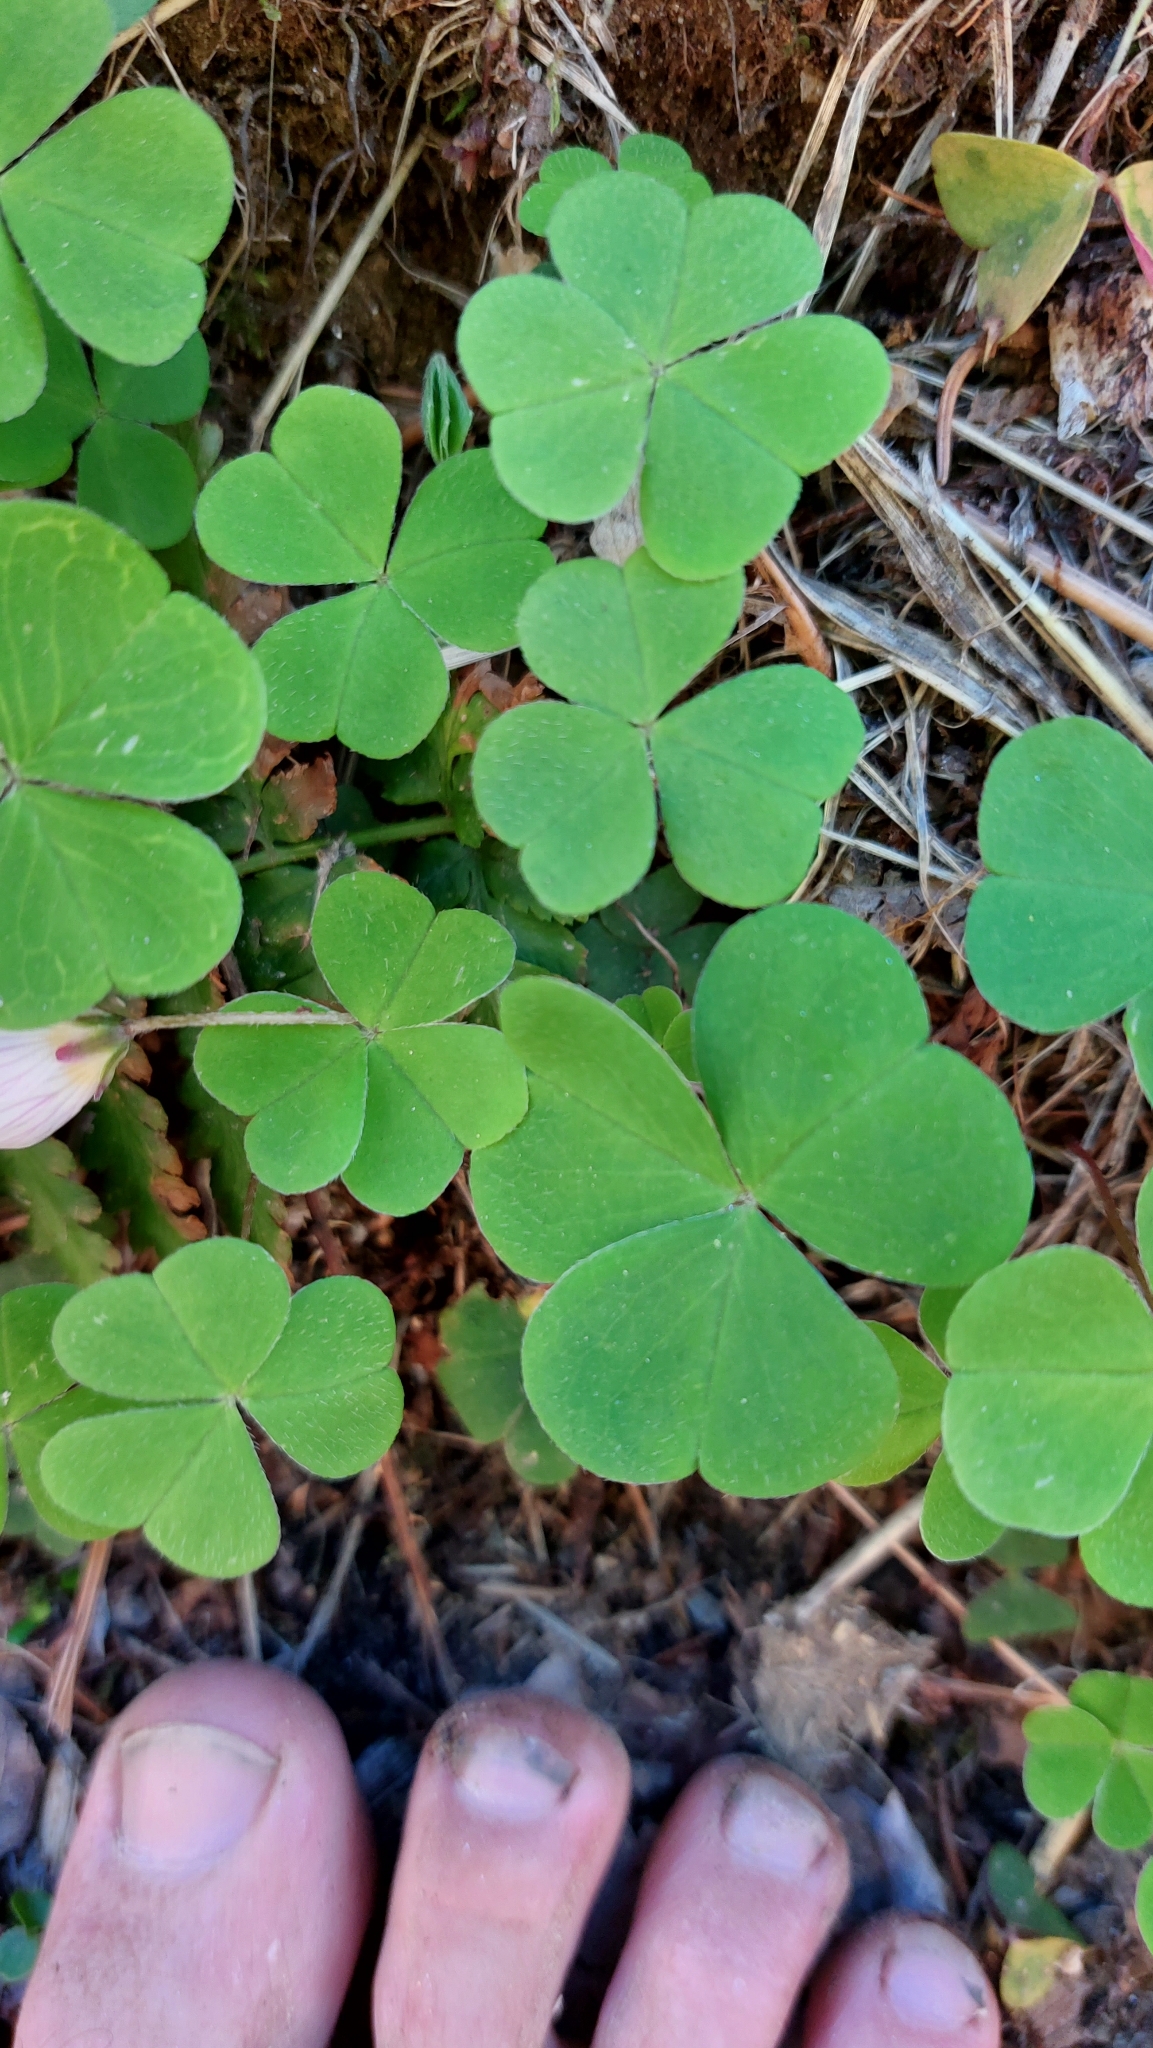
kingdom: Plantae
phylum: Tracheophyta
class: Magnoliopsida
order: Oxalidales
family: Oxalidaceae
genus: Oxalis
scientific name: Oxalis acetosella
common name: Wood-sorrel
